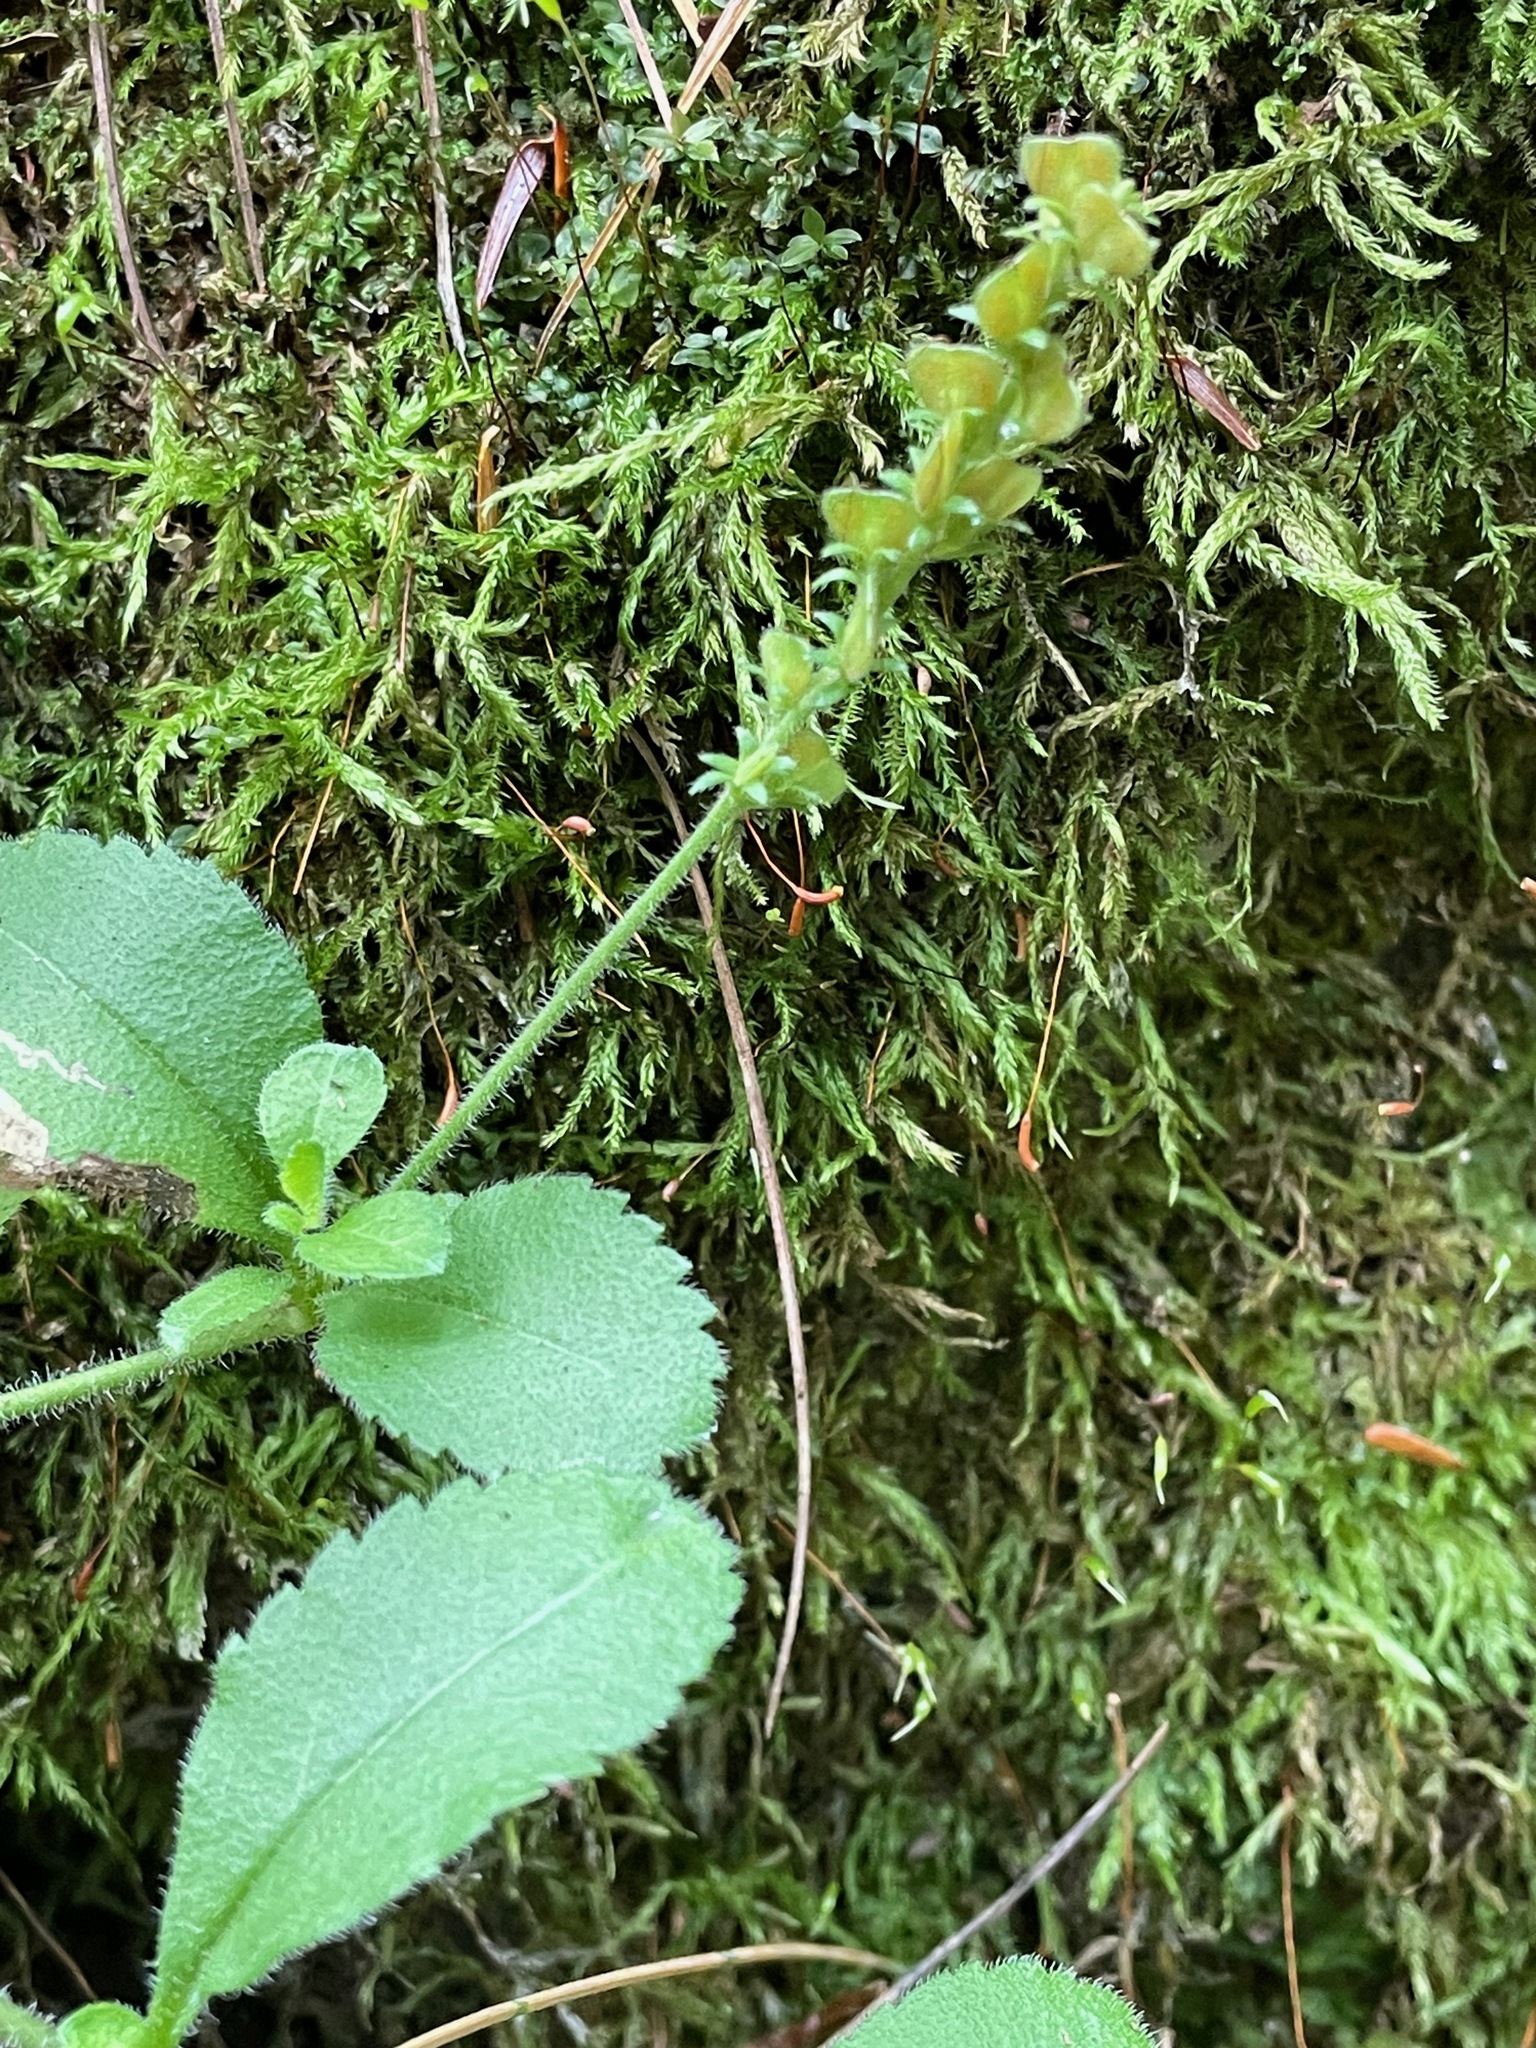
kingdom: Plantae
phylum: Tracheophyta
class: Magnoliopsida
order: Lamiales
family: Plantaginaceae
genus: Veronica
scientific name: Veronica officinalis
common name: Common speedwell
